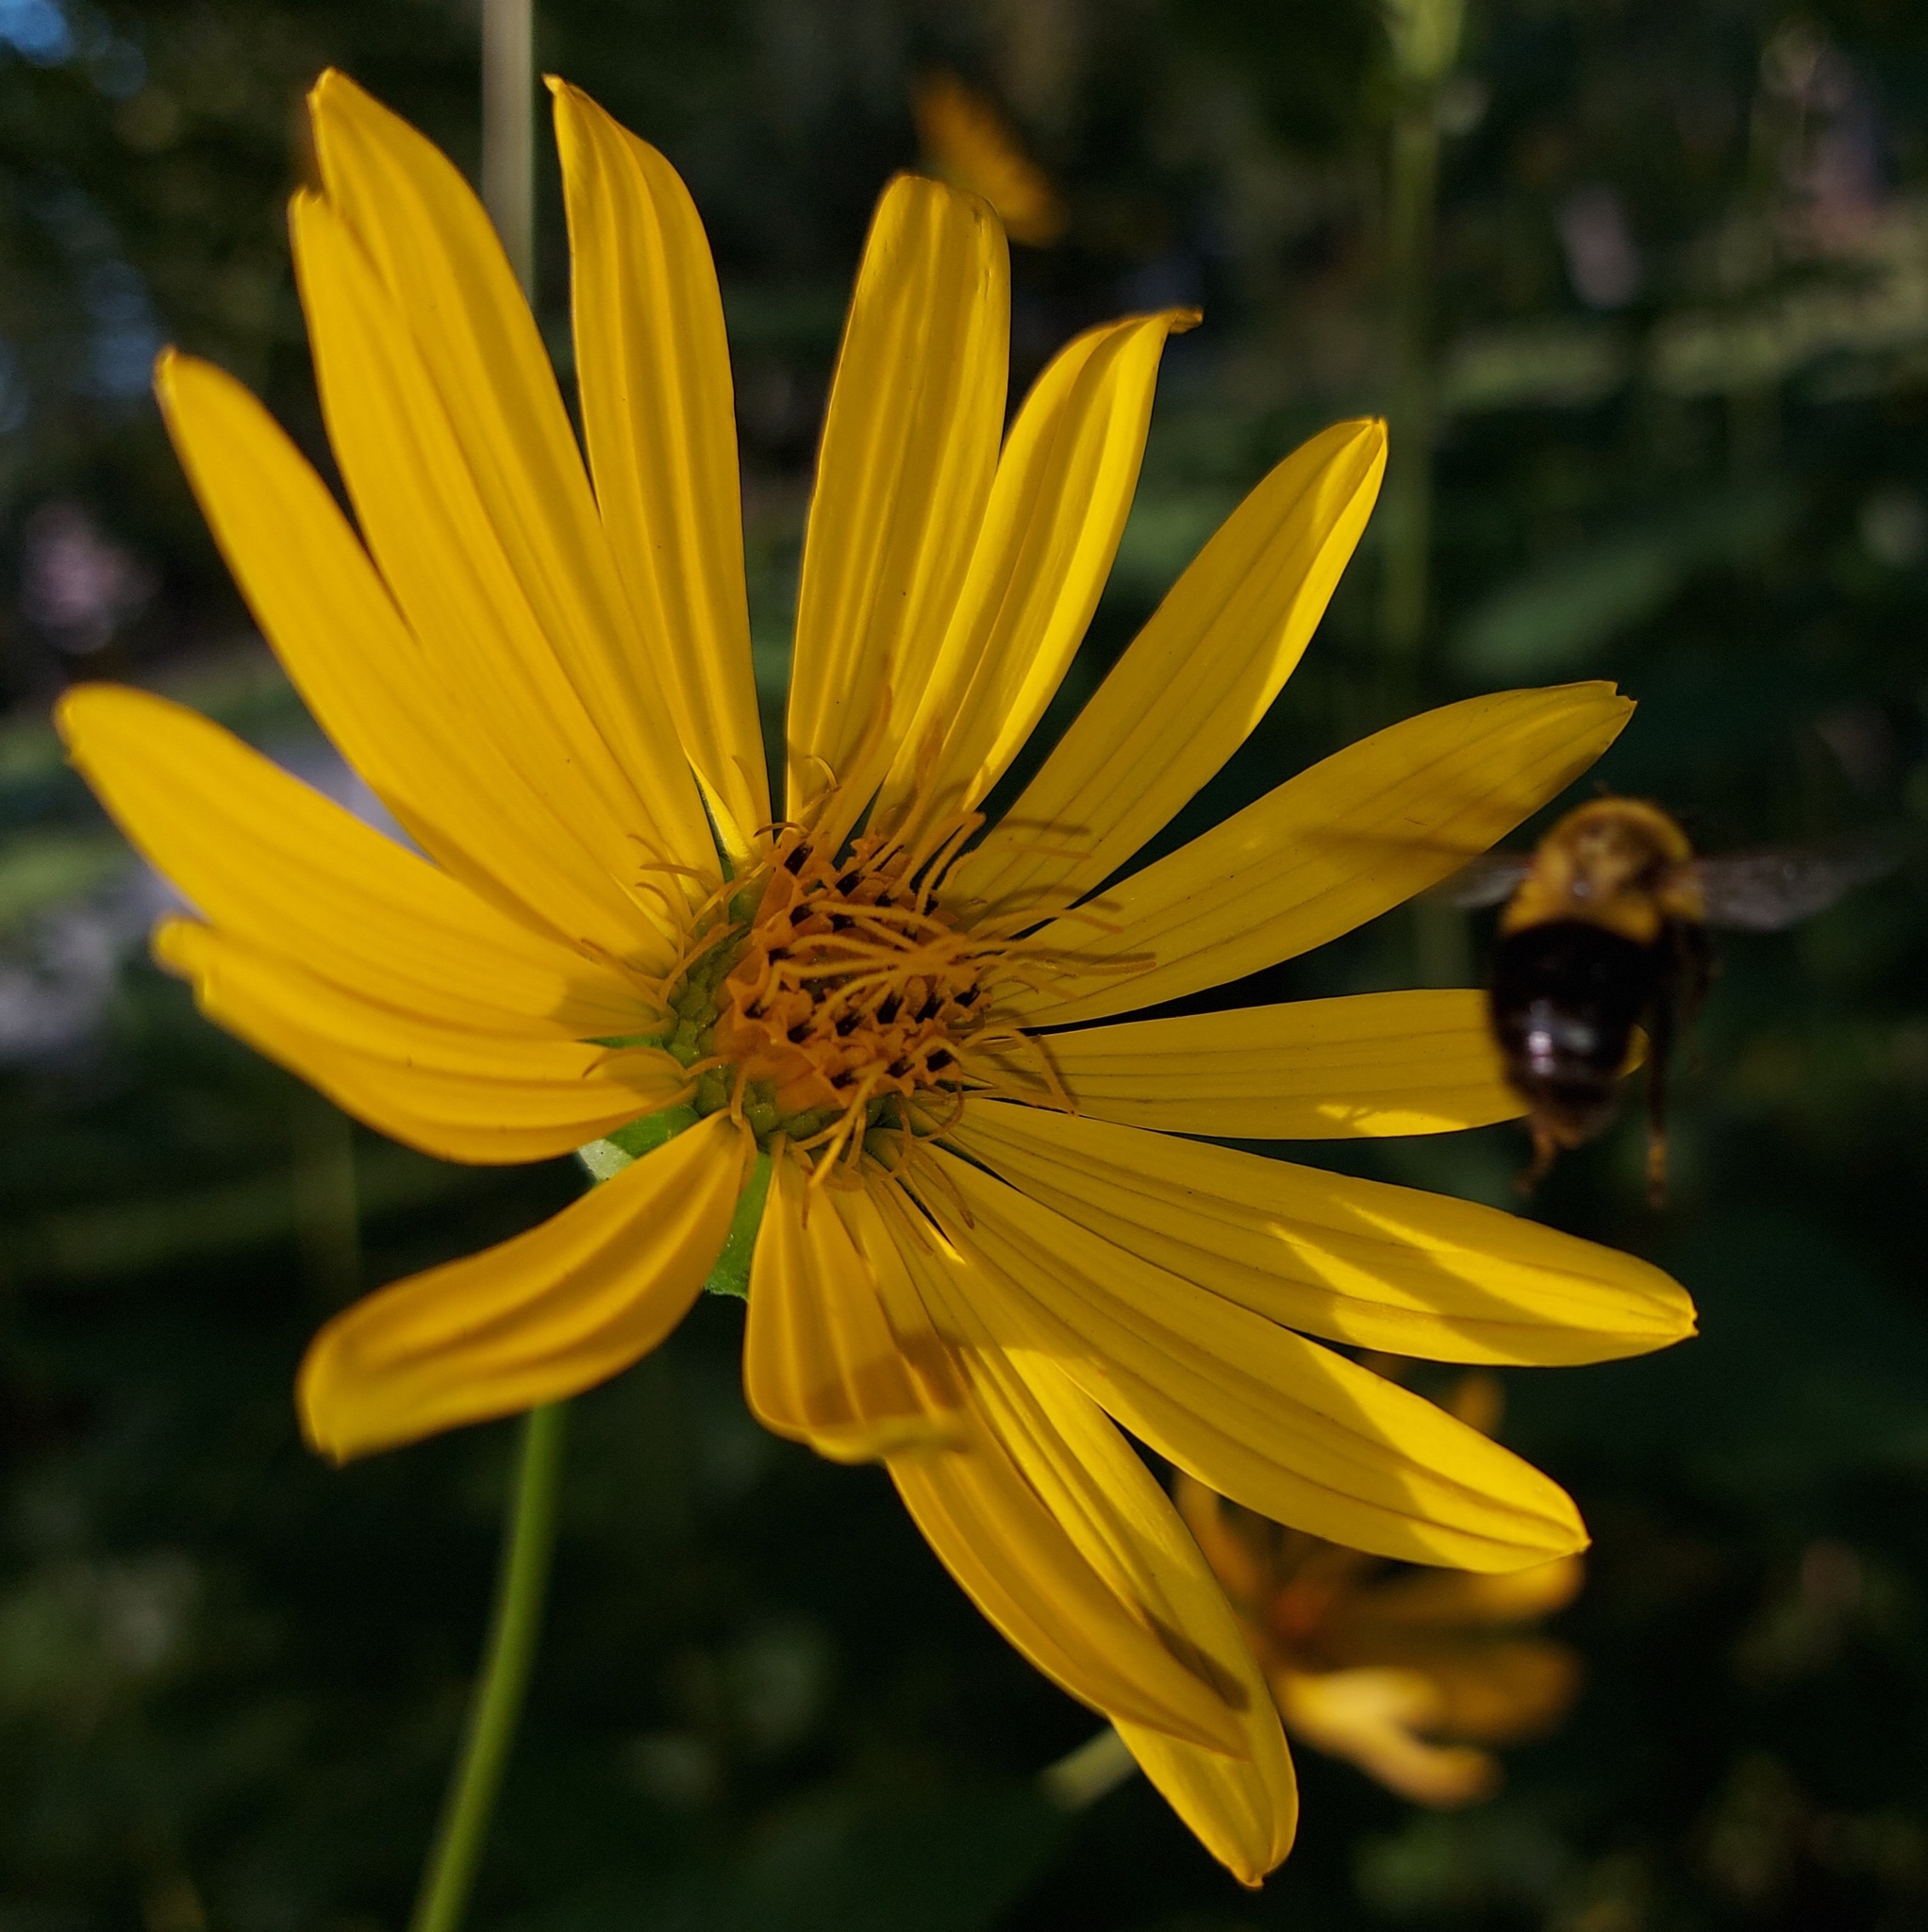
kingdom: Animalia
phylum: Arthropoda
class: Insecta
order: Hymenoptera
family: Apidae
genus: Bombus
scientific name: Bombus impatiens
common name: Common eastern bumble bee
